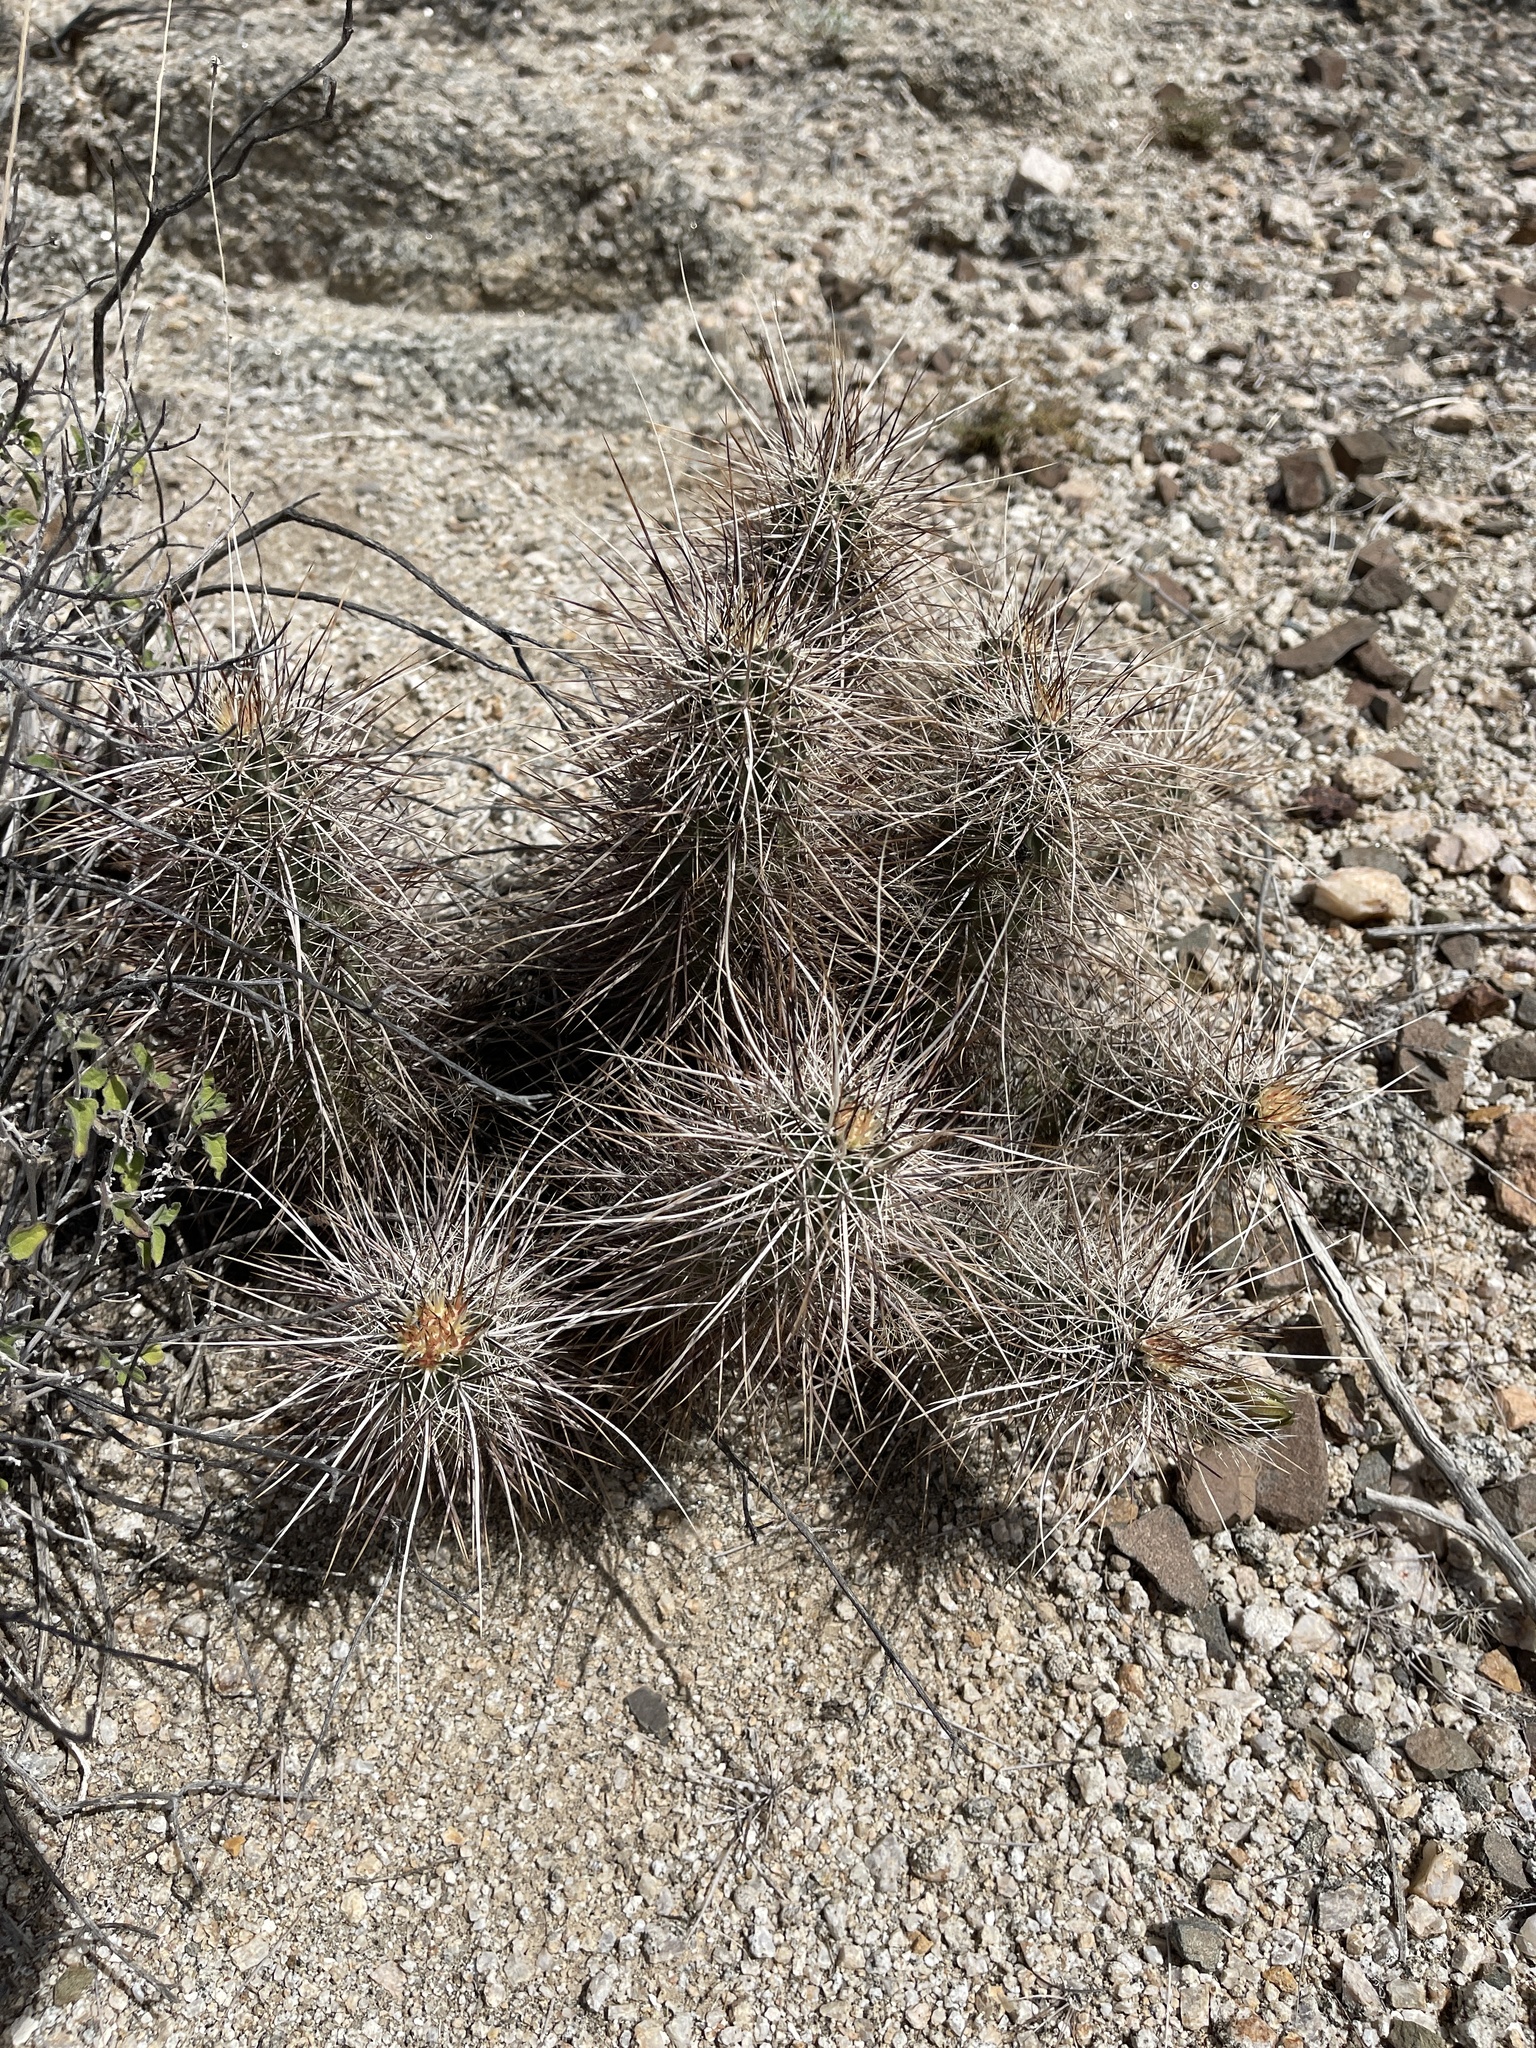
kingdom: Plantae
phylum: Tracheophyta
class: Magnoliopsida
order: Caryophyllales
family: Cactaceae
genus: Echinocereus
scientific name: Echinocereus engelmannii
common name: Engelmann's hedgehog cactus
